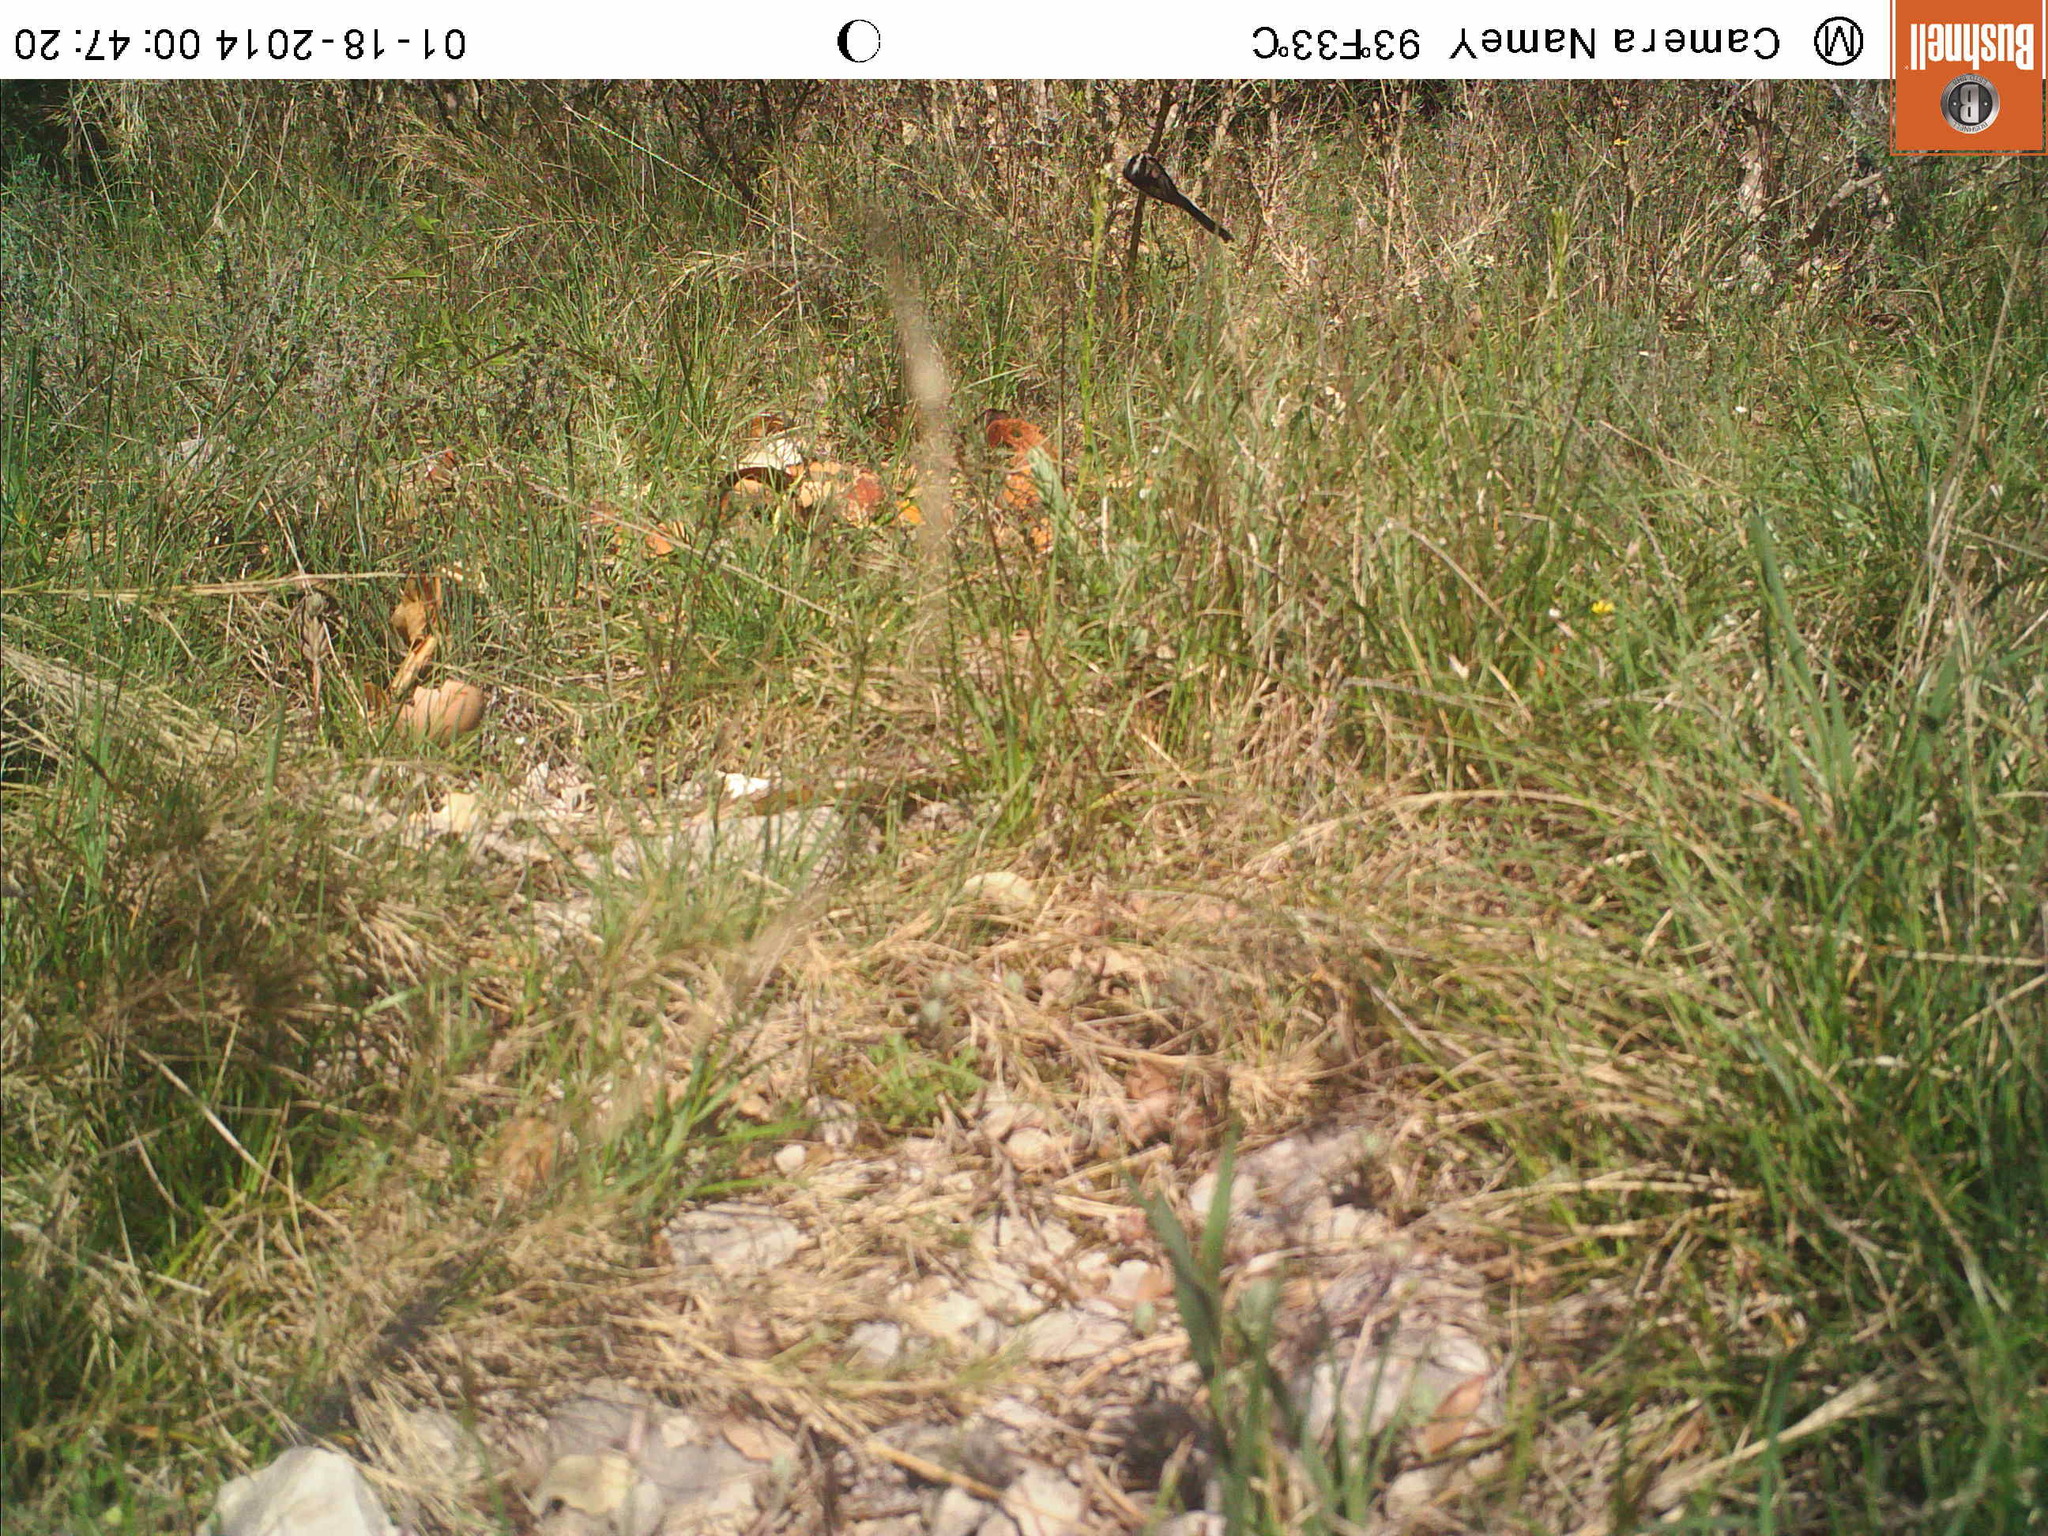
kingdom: Animalia
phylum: Chordata
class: Aves
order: Passeriformes
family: Aegithalidae
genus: Aegithalos
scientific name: Aegithalos caudatus
